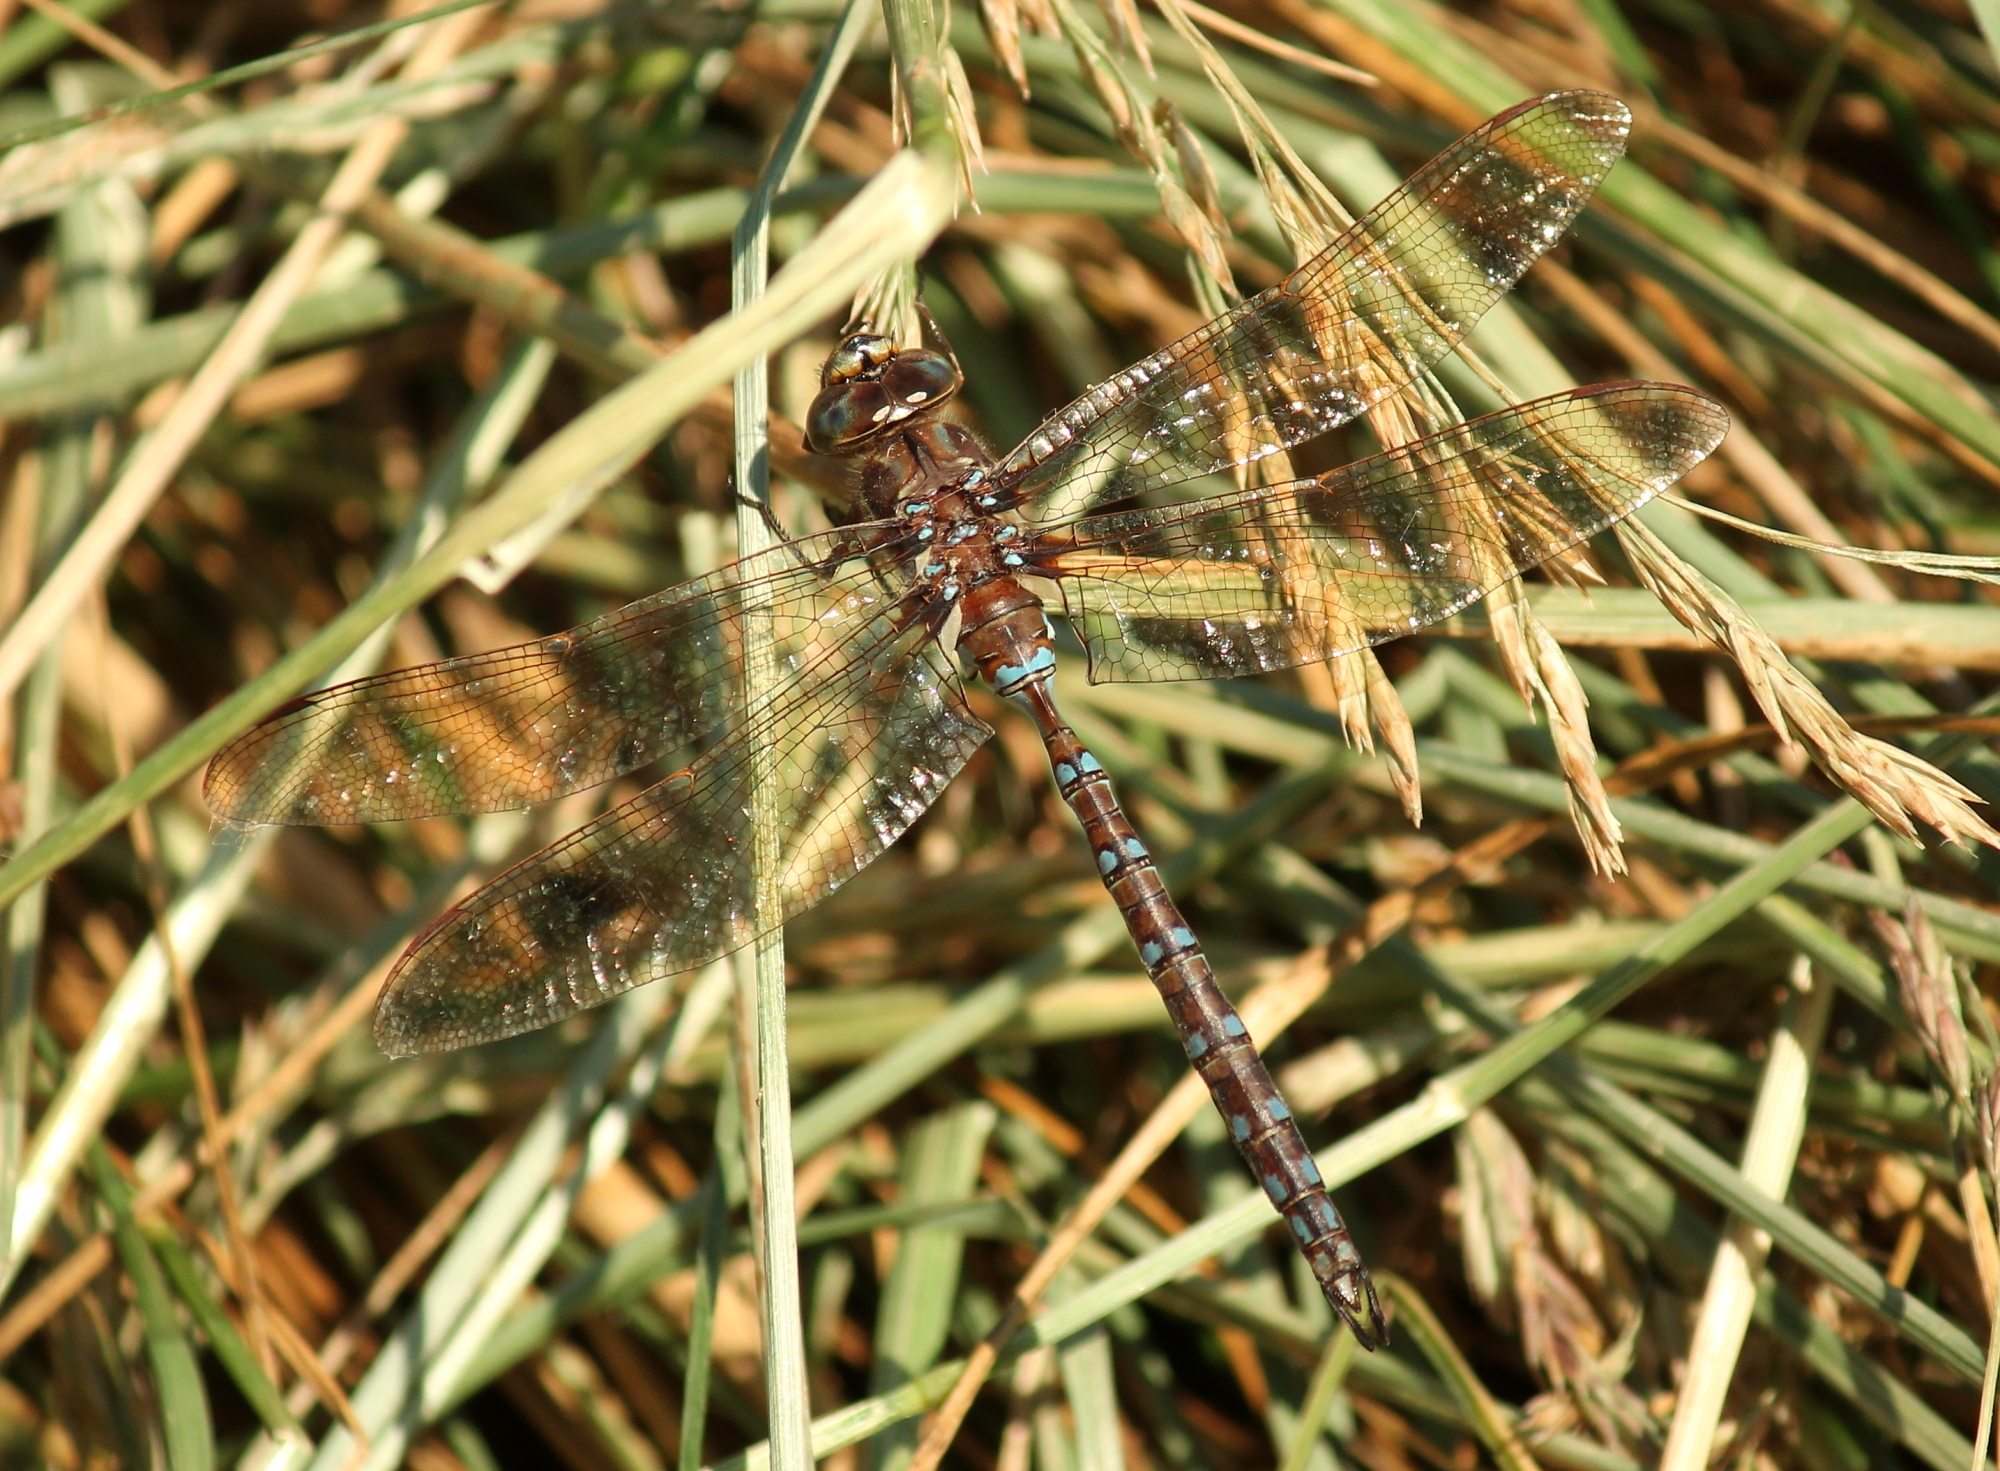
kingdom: Animalia
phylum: Arthropoda
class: Insecta
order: Odonata
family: Aeshnidae
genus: Basiaeschna
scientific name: Basiaeschna janata
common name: Springtime darner
